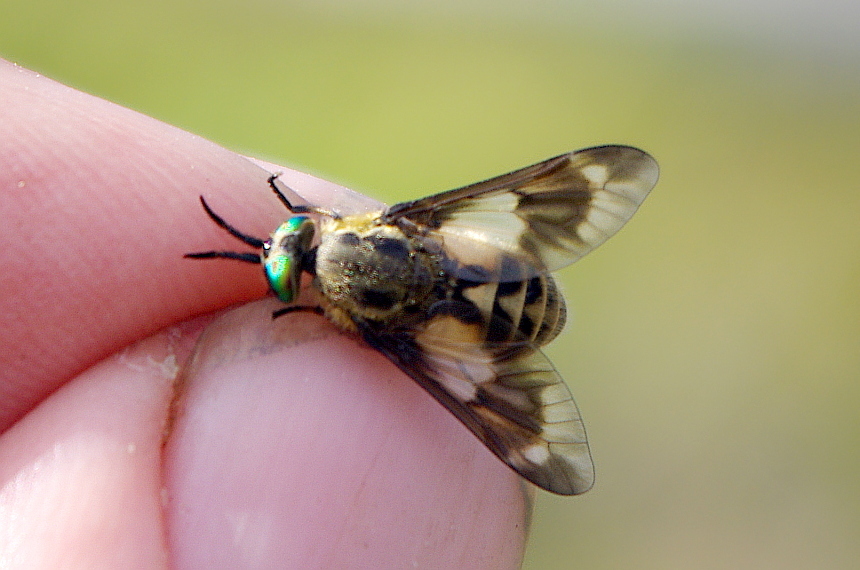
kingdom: Animalia
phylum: Arthropoda
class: Insecta
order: Diptera
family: Tabanidae
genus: Chrysops
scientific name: Chrysops relictus
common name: Twin-lobed deerfly
